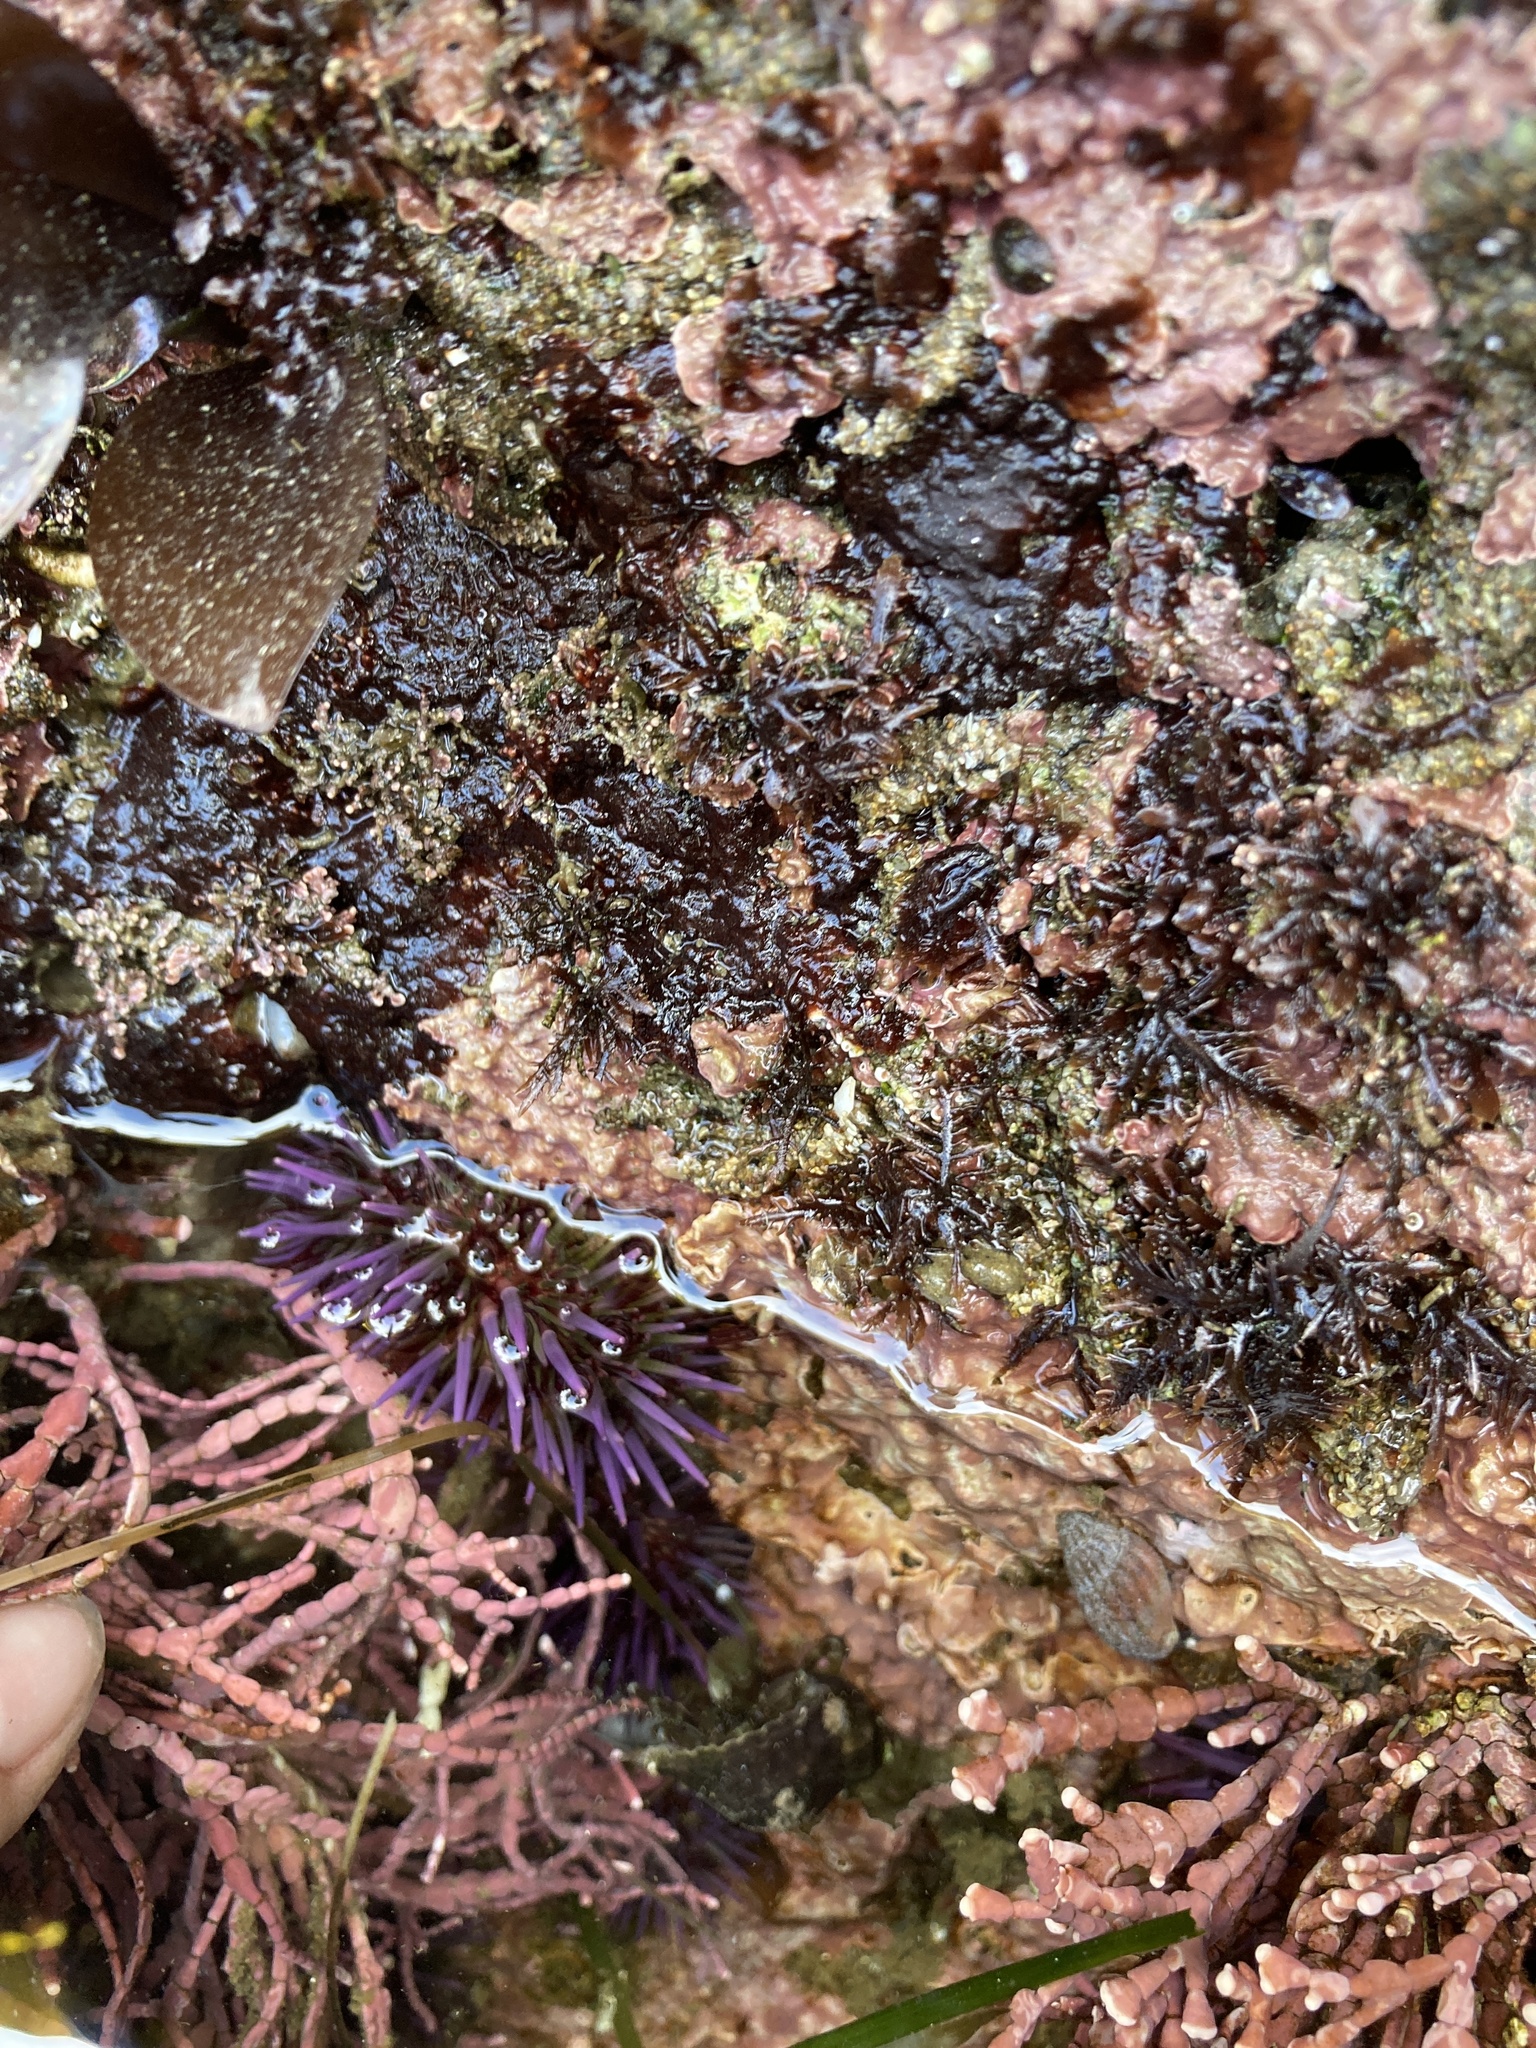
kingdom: Animalia
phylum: Echinodermata
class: Echinoidea
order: Camarodonta
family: Strongylocentrotidae
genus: Strongylocentrotus
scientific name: Strongylocentrotus purpuratus
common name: Purple sea urchin
